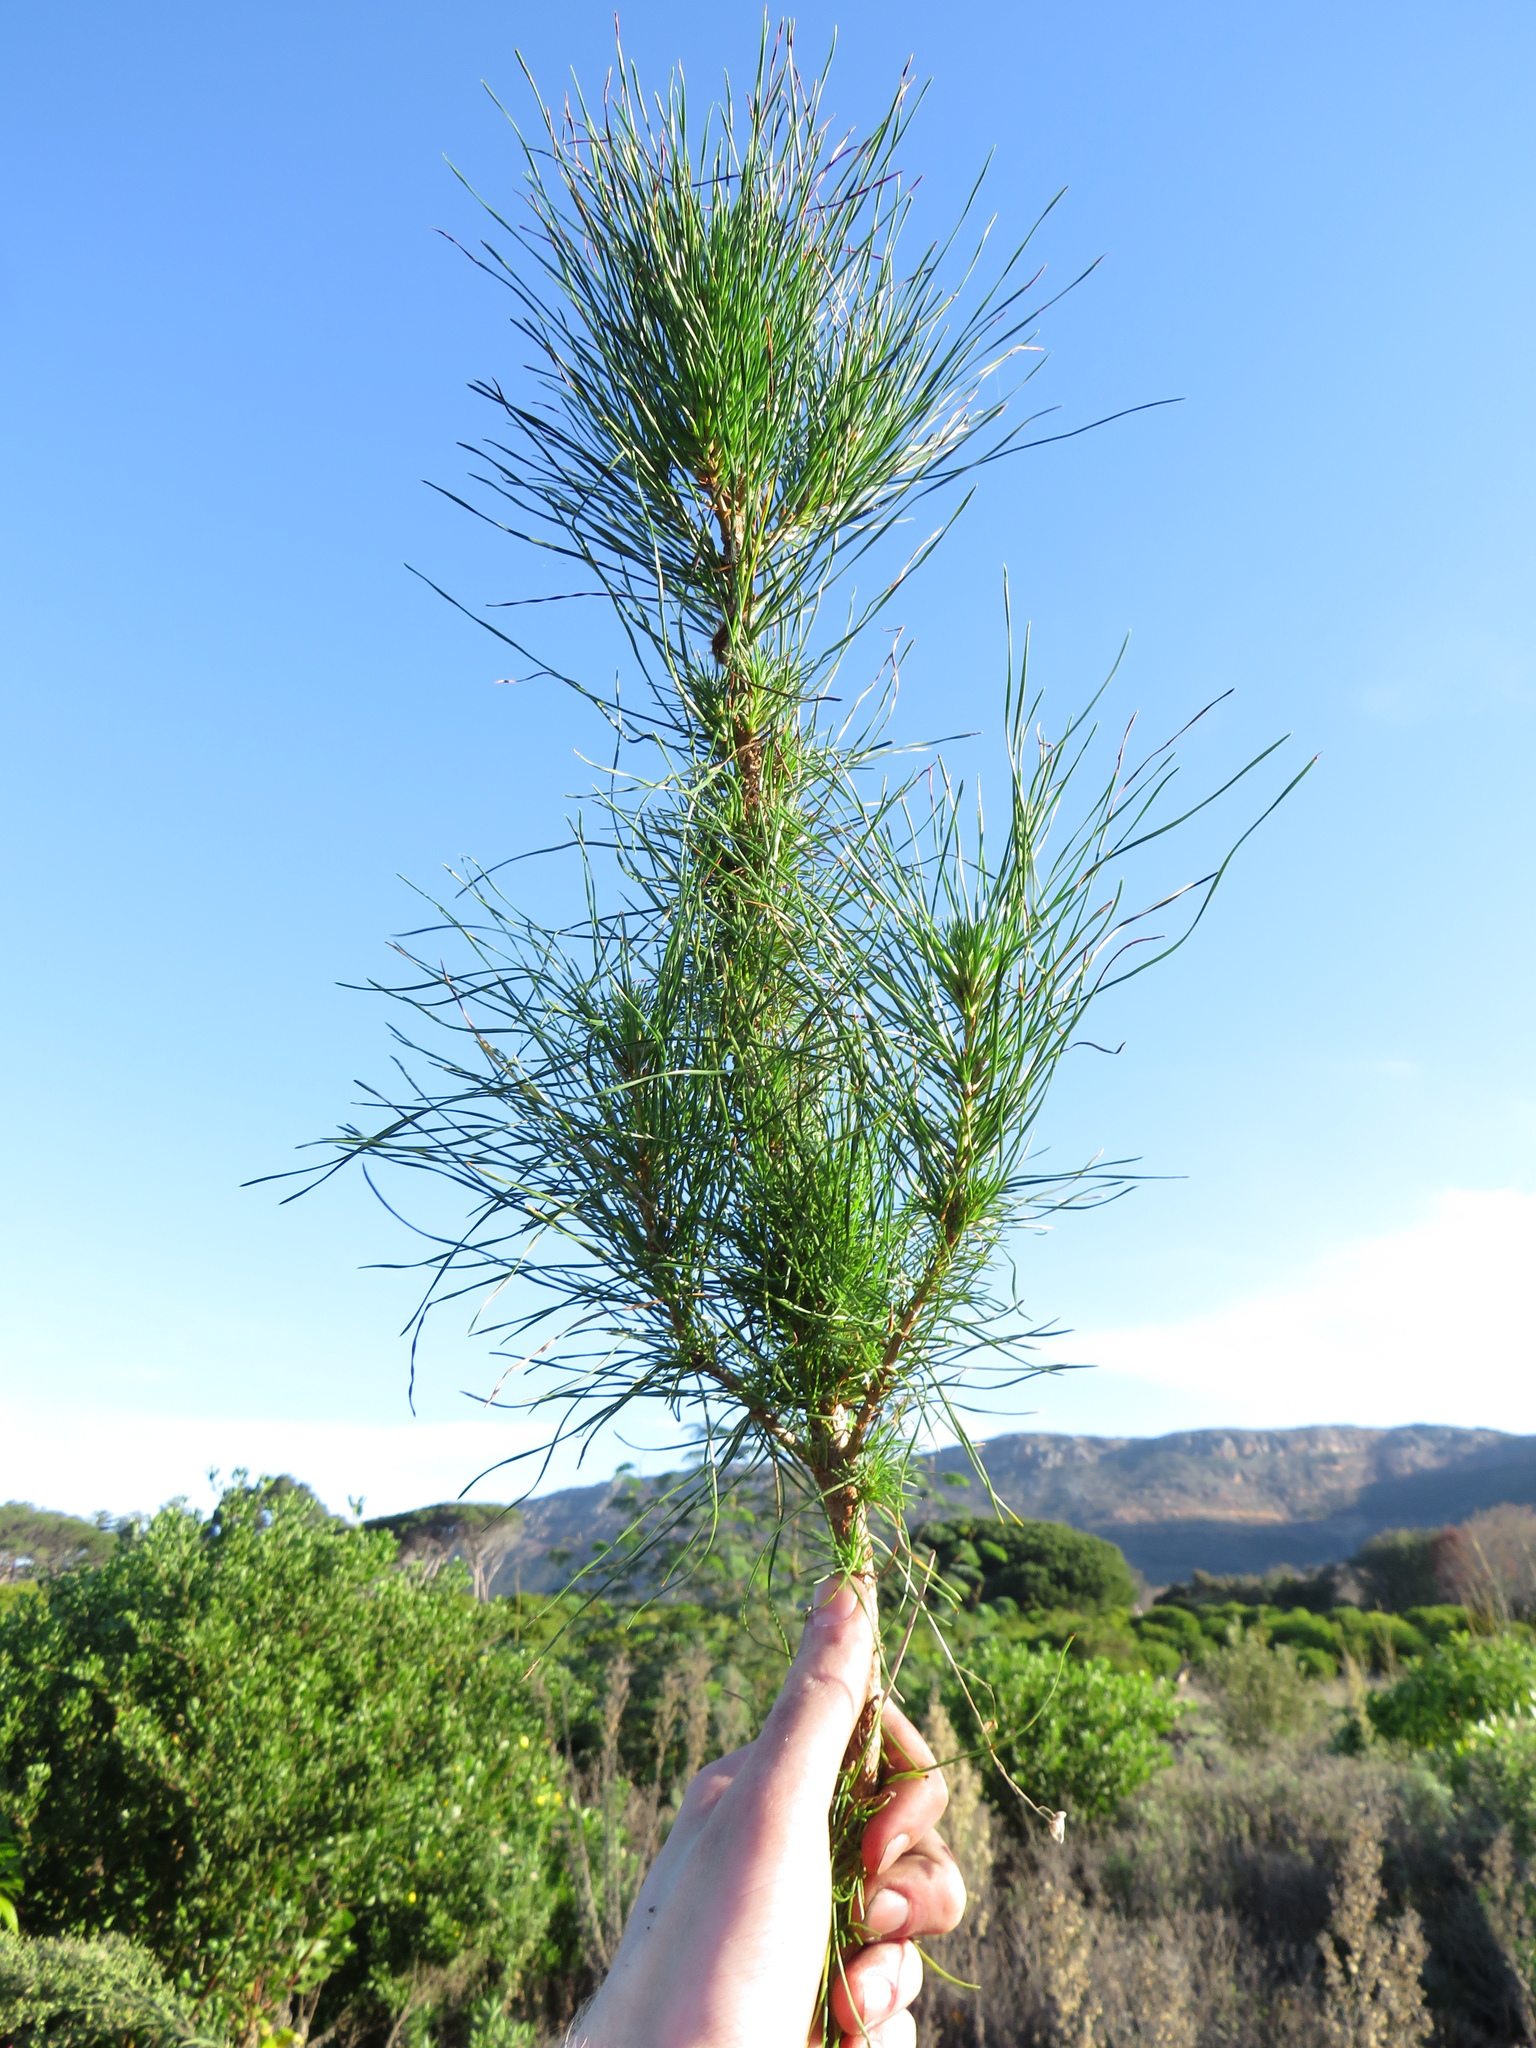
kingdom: Plantae
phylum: Tracheophyta
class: Pinopsida
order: Pinales
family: Pinaceae
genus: Pinus
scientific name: Pinus radiata
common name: Monterey pine
